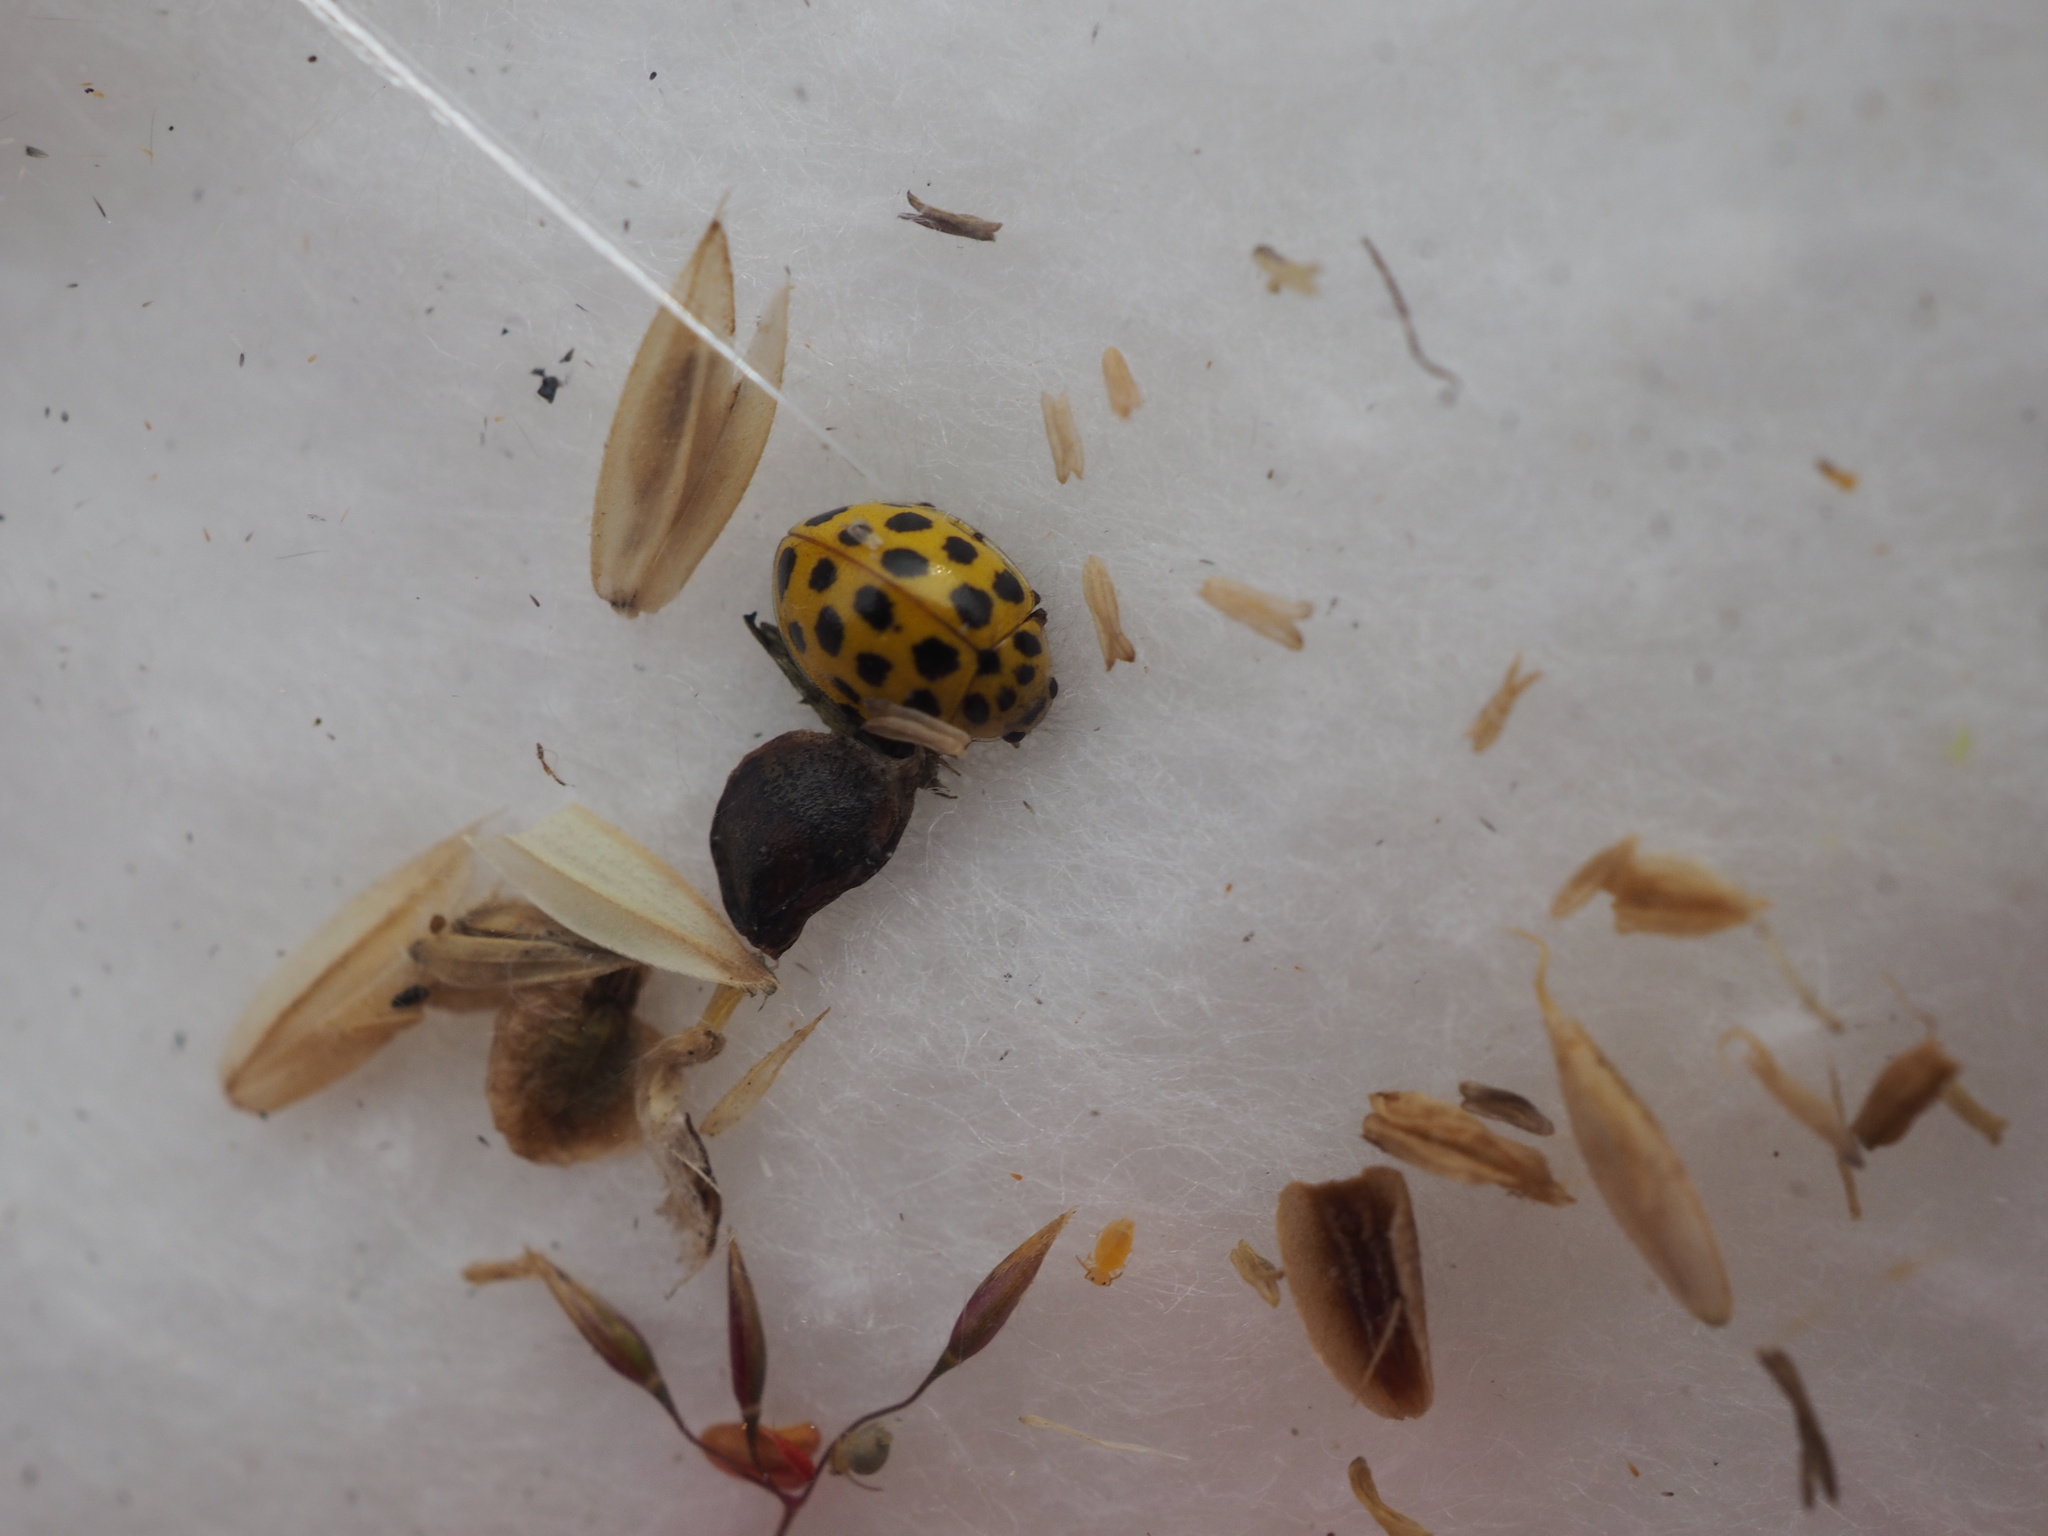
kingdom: Animalia
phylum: Arthropoda
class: Insecta
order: Coleoptera
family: Coccinellidae
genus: Psyllobora
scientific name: Psyllobora vigintiduopunctata
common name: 22-spot ladybird
